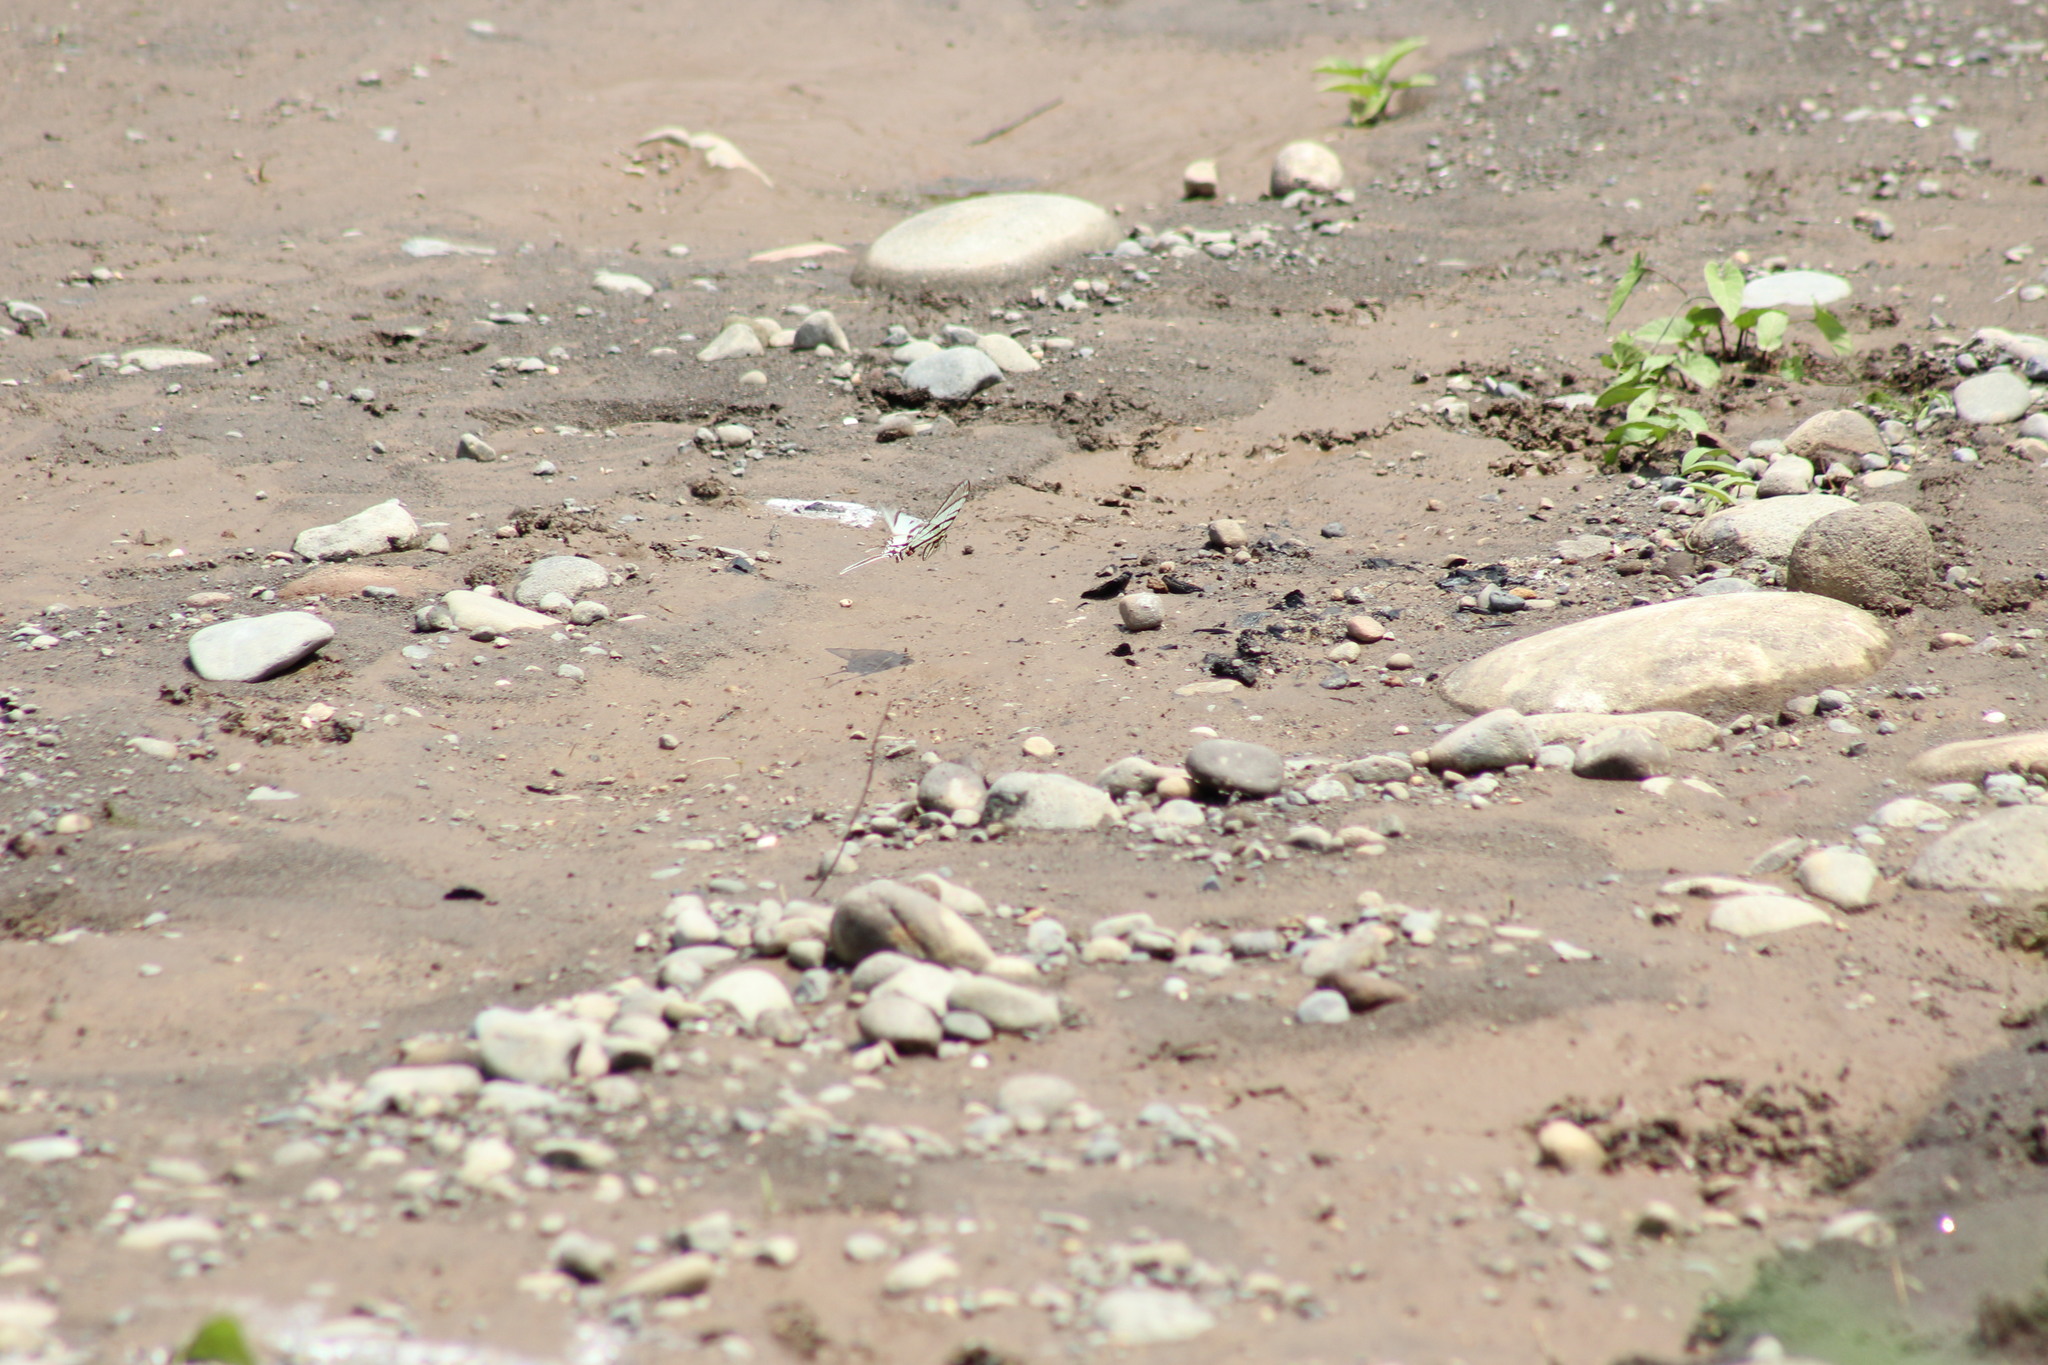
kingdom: Animalia
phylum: Arthropoda
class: Insecta
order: Lepidoptera
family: Papilionidae
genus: Protographium
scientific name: Protographium epidaus
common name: Mexican kite swallowtail
